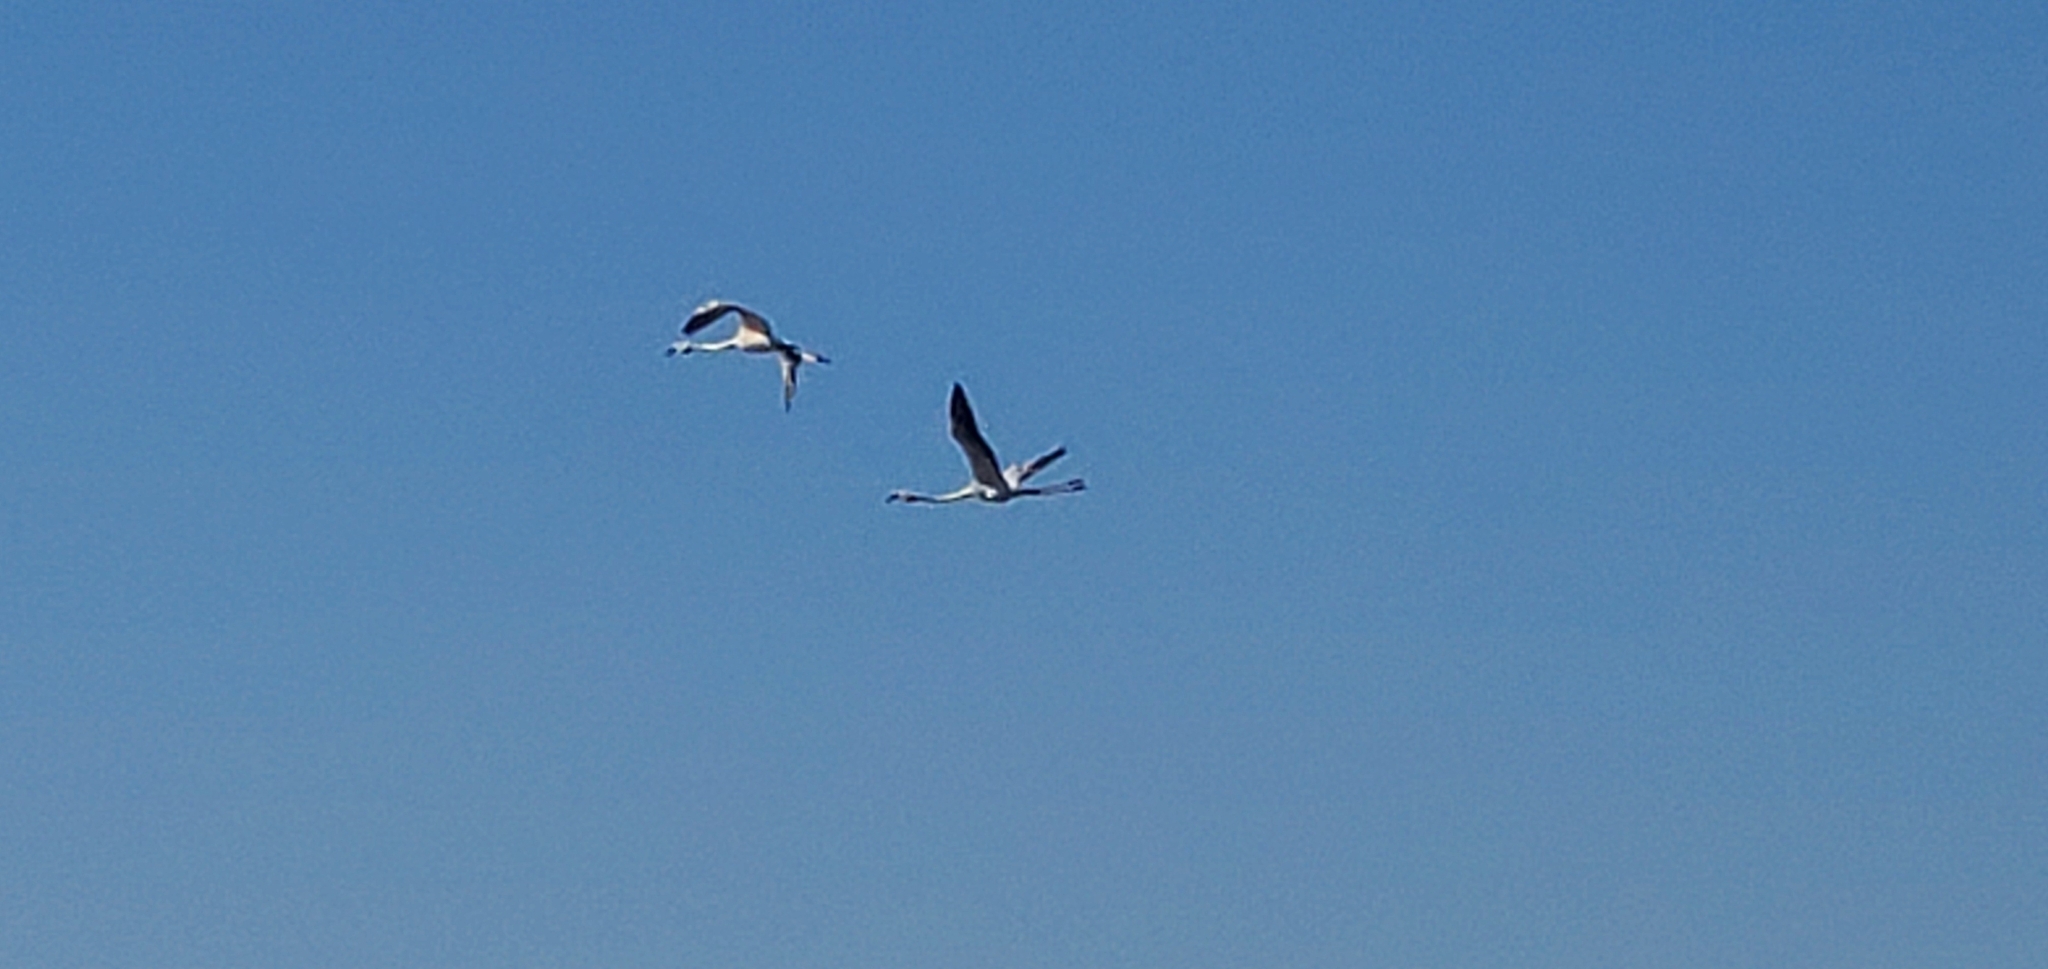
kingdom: Animalia
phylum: Chordata
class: Aves
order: Phoenicopteriformes
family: Phoenicopteridae
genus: Phoenicopterus
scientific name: Phoenicopterus roseus
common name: Greater flamingo
